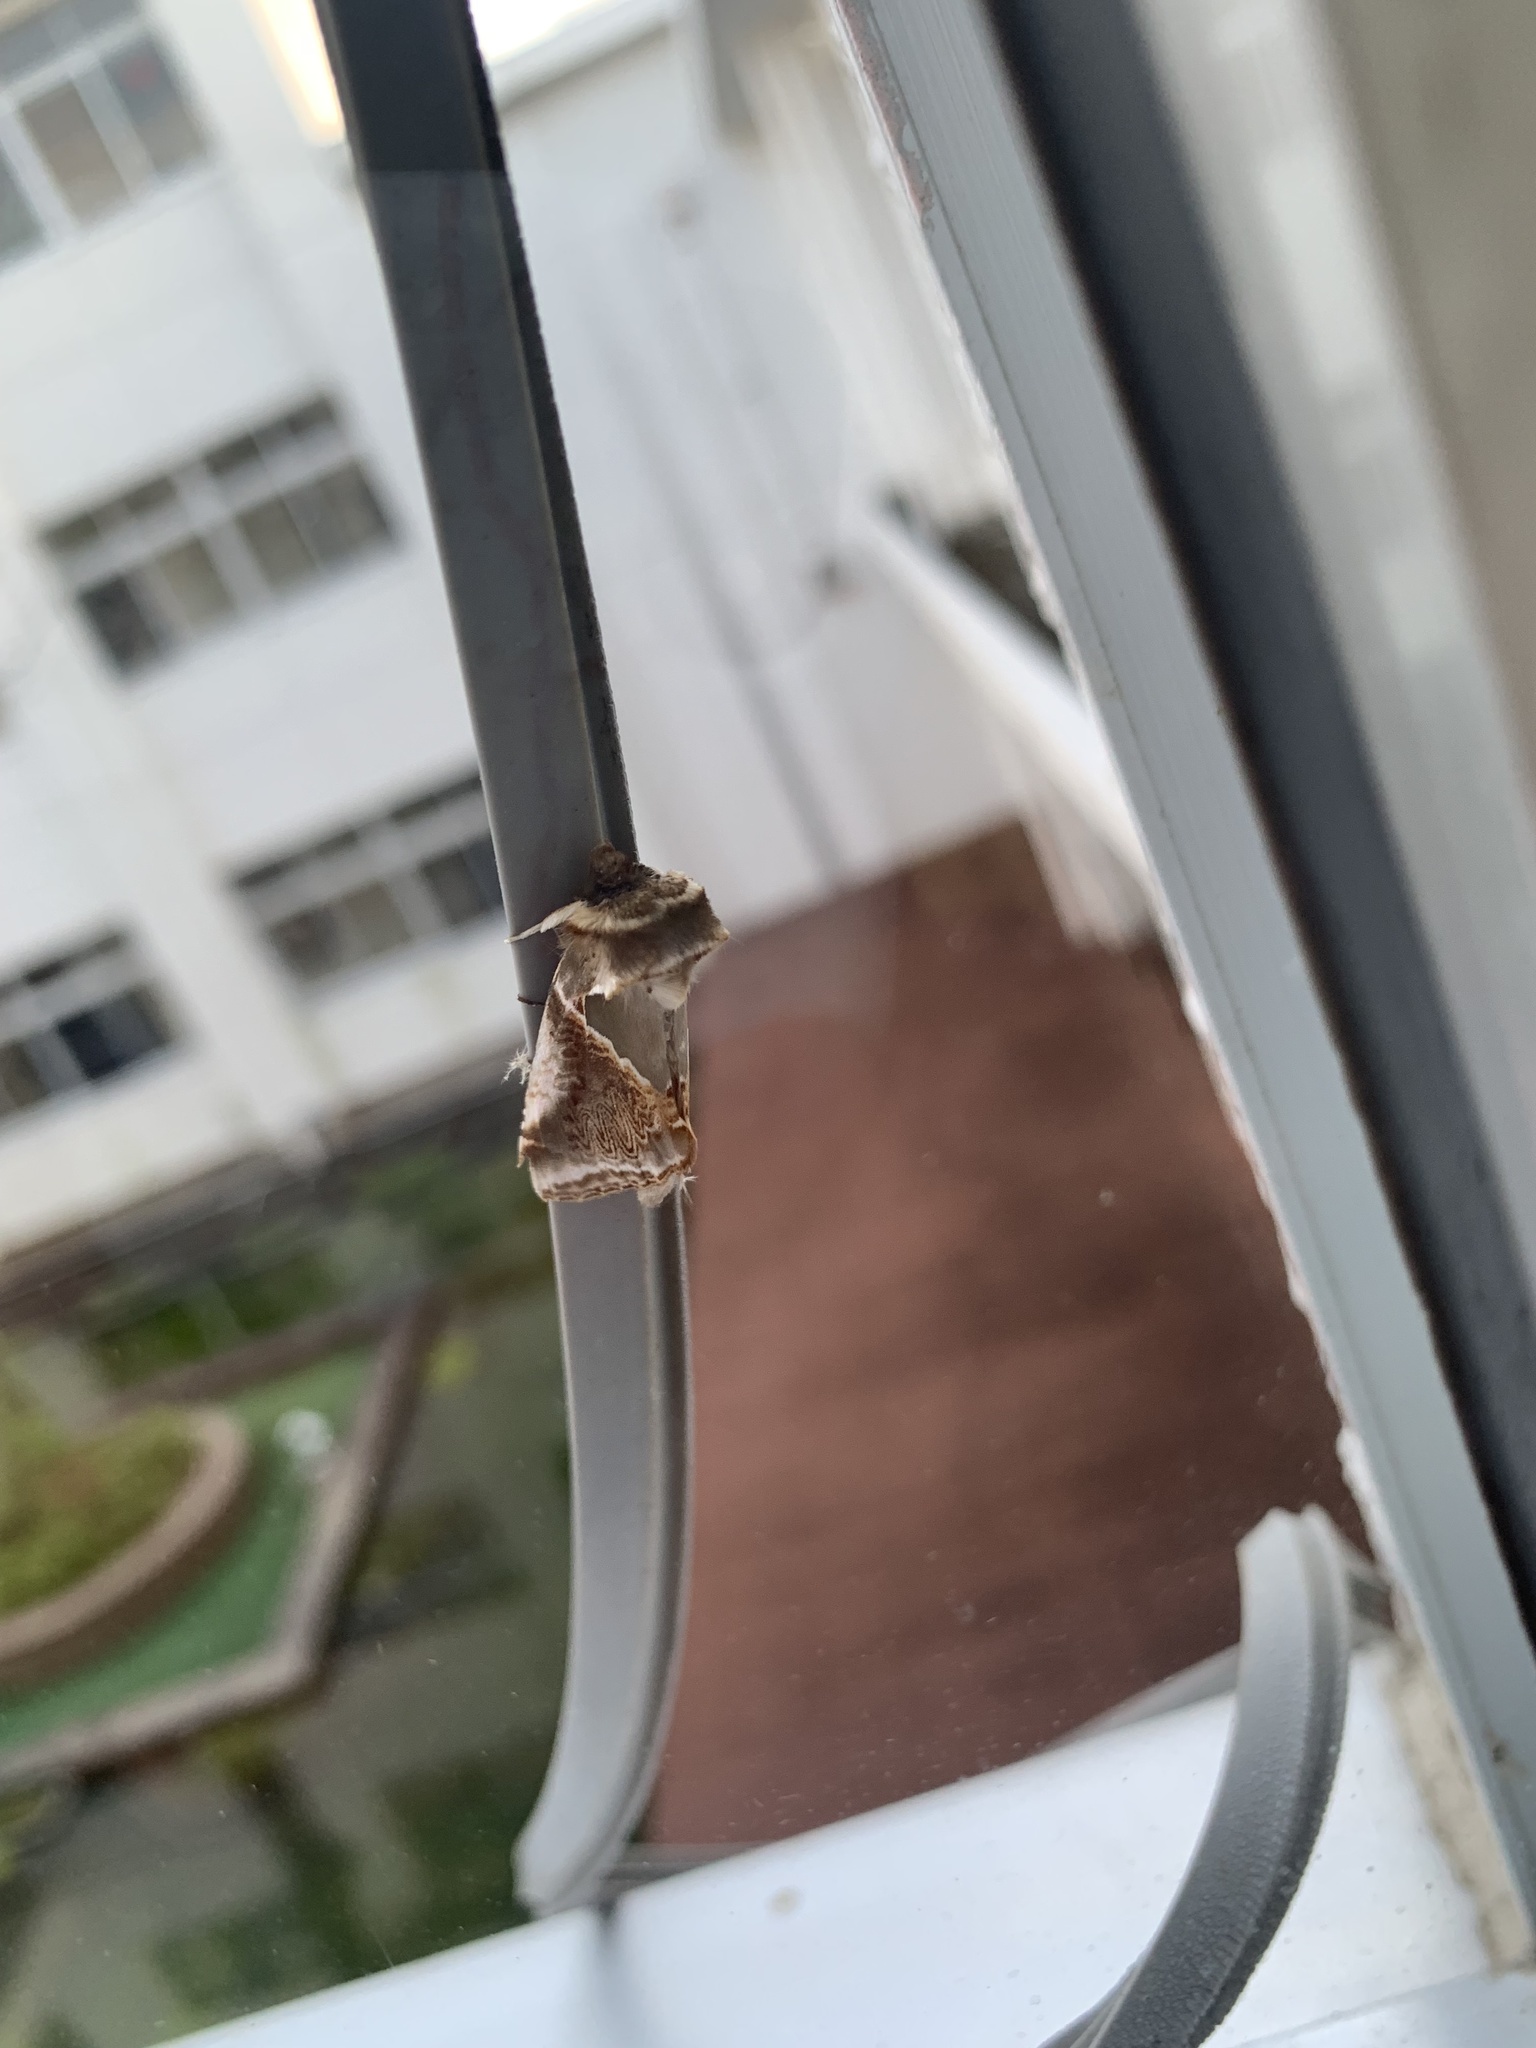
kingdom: Animalia
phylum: Arthropoda
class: Insecta
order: Lepidoptera
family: Drepanidae
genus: Habrosyne
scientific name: Habrosyne fraterna
